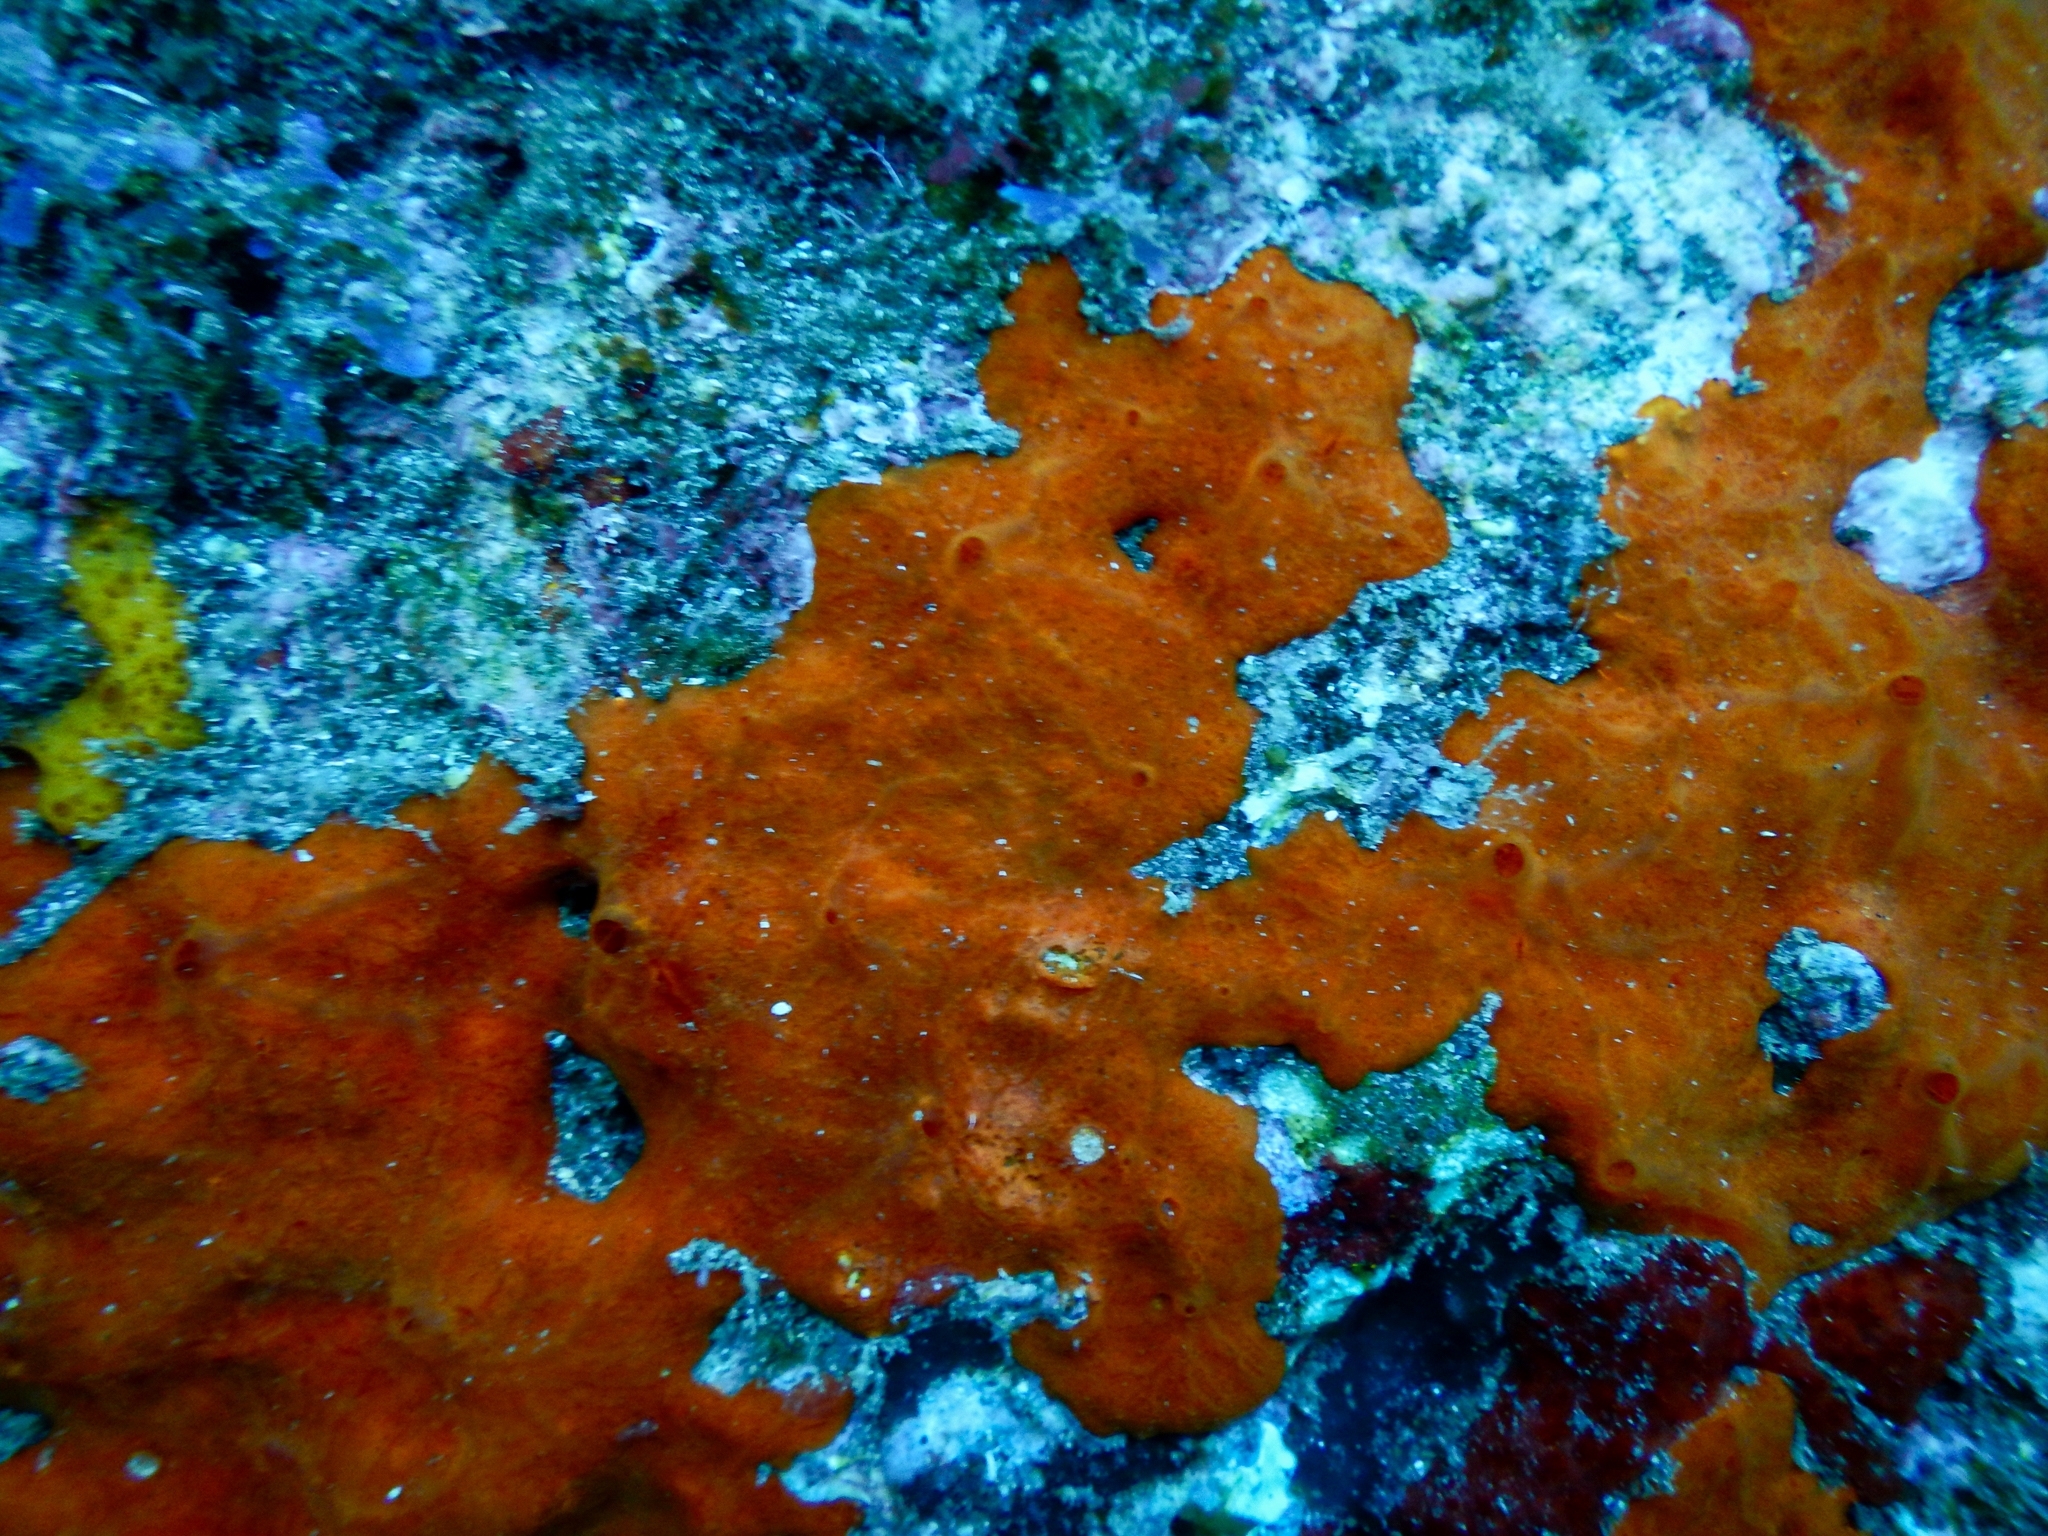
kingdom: Animalia
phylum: Porifera
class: Demospongiae
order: Poecilosclerida
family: Crambeidae
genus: Crambe
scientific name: Crambe crambe
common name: Orange-red encrusting sponge
